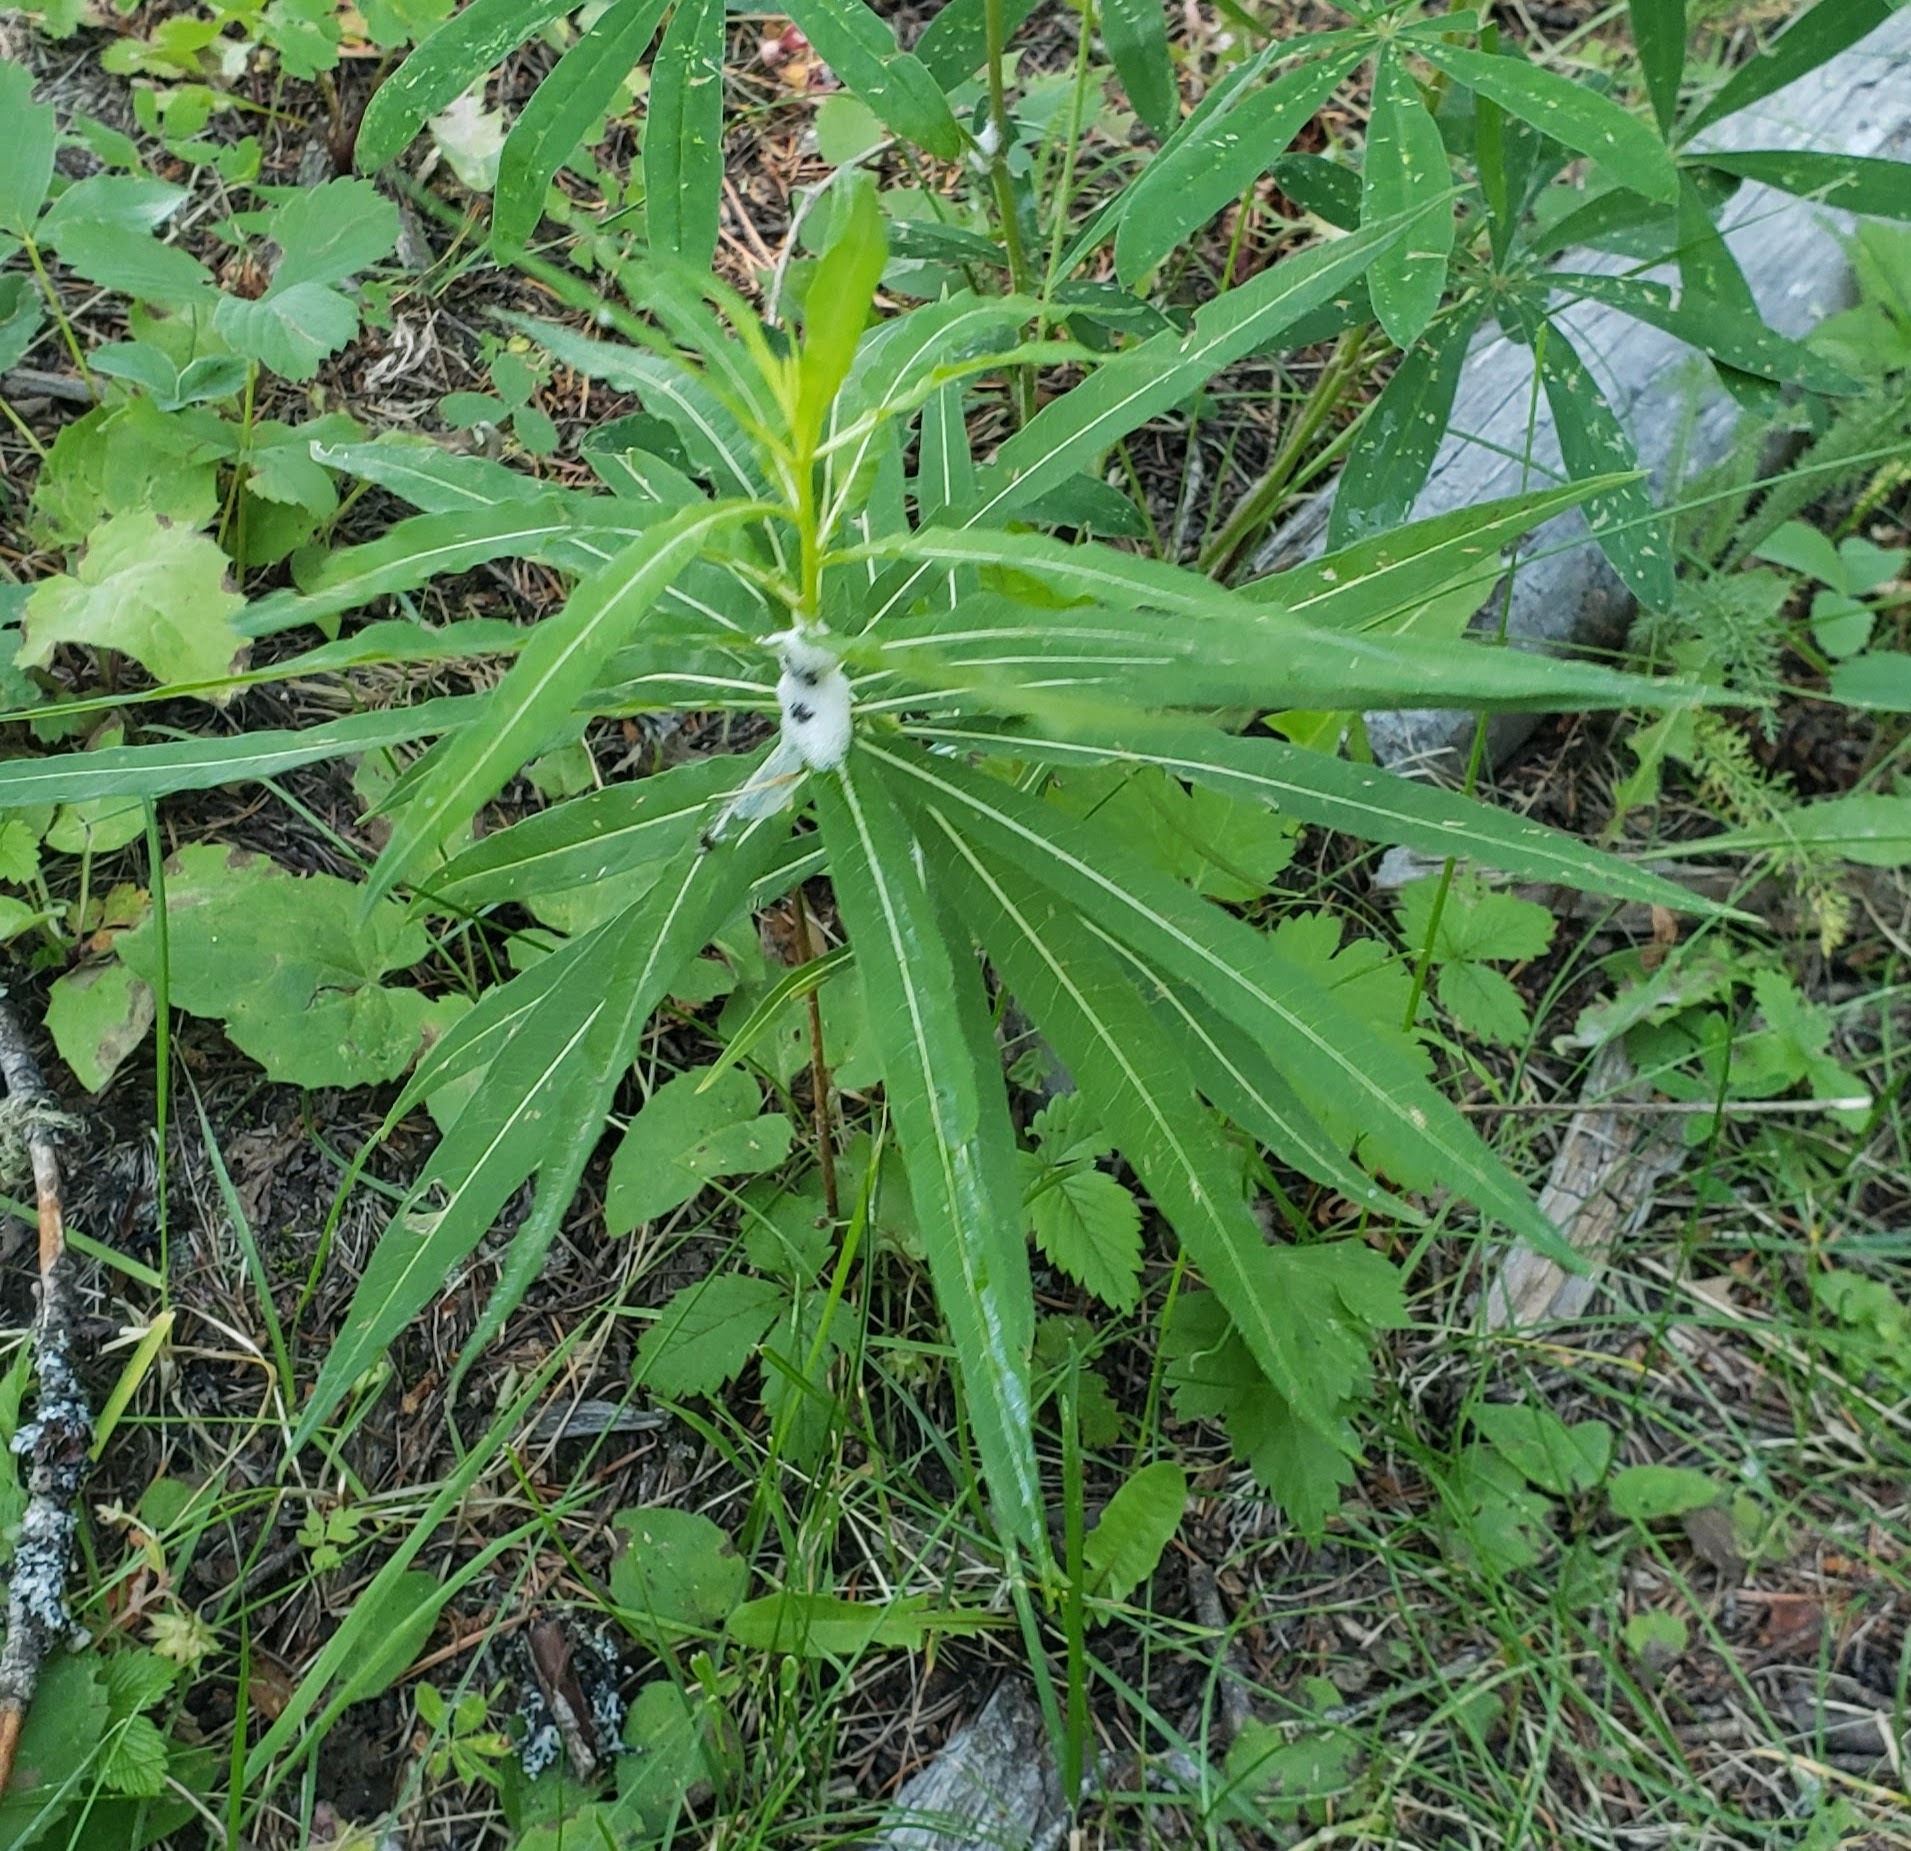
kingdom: Plantae
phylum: Tracheophyta
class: Magnoliopsida
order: Myrtales
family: Onagraceae
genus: Chamaenerion
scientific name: Chamaenerion angustifolium
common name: Fireweed
